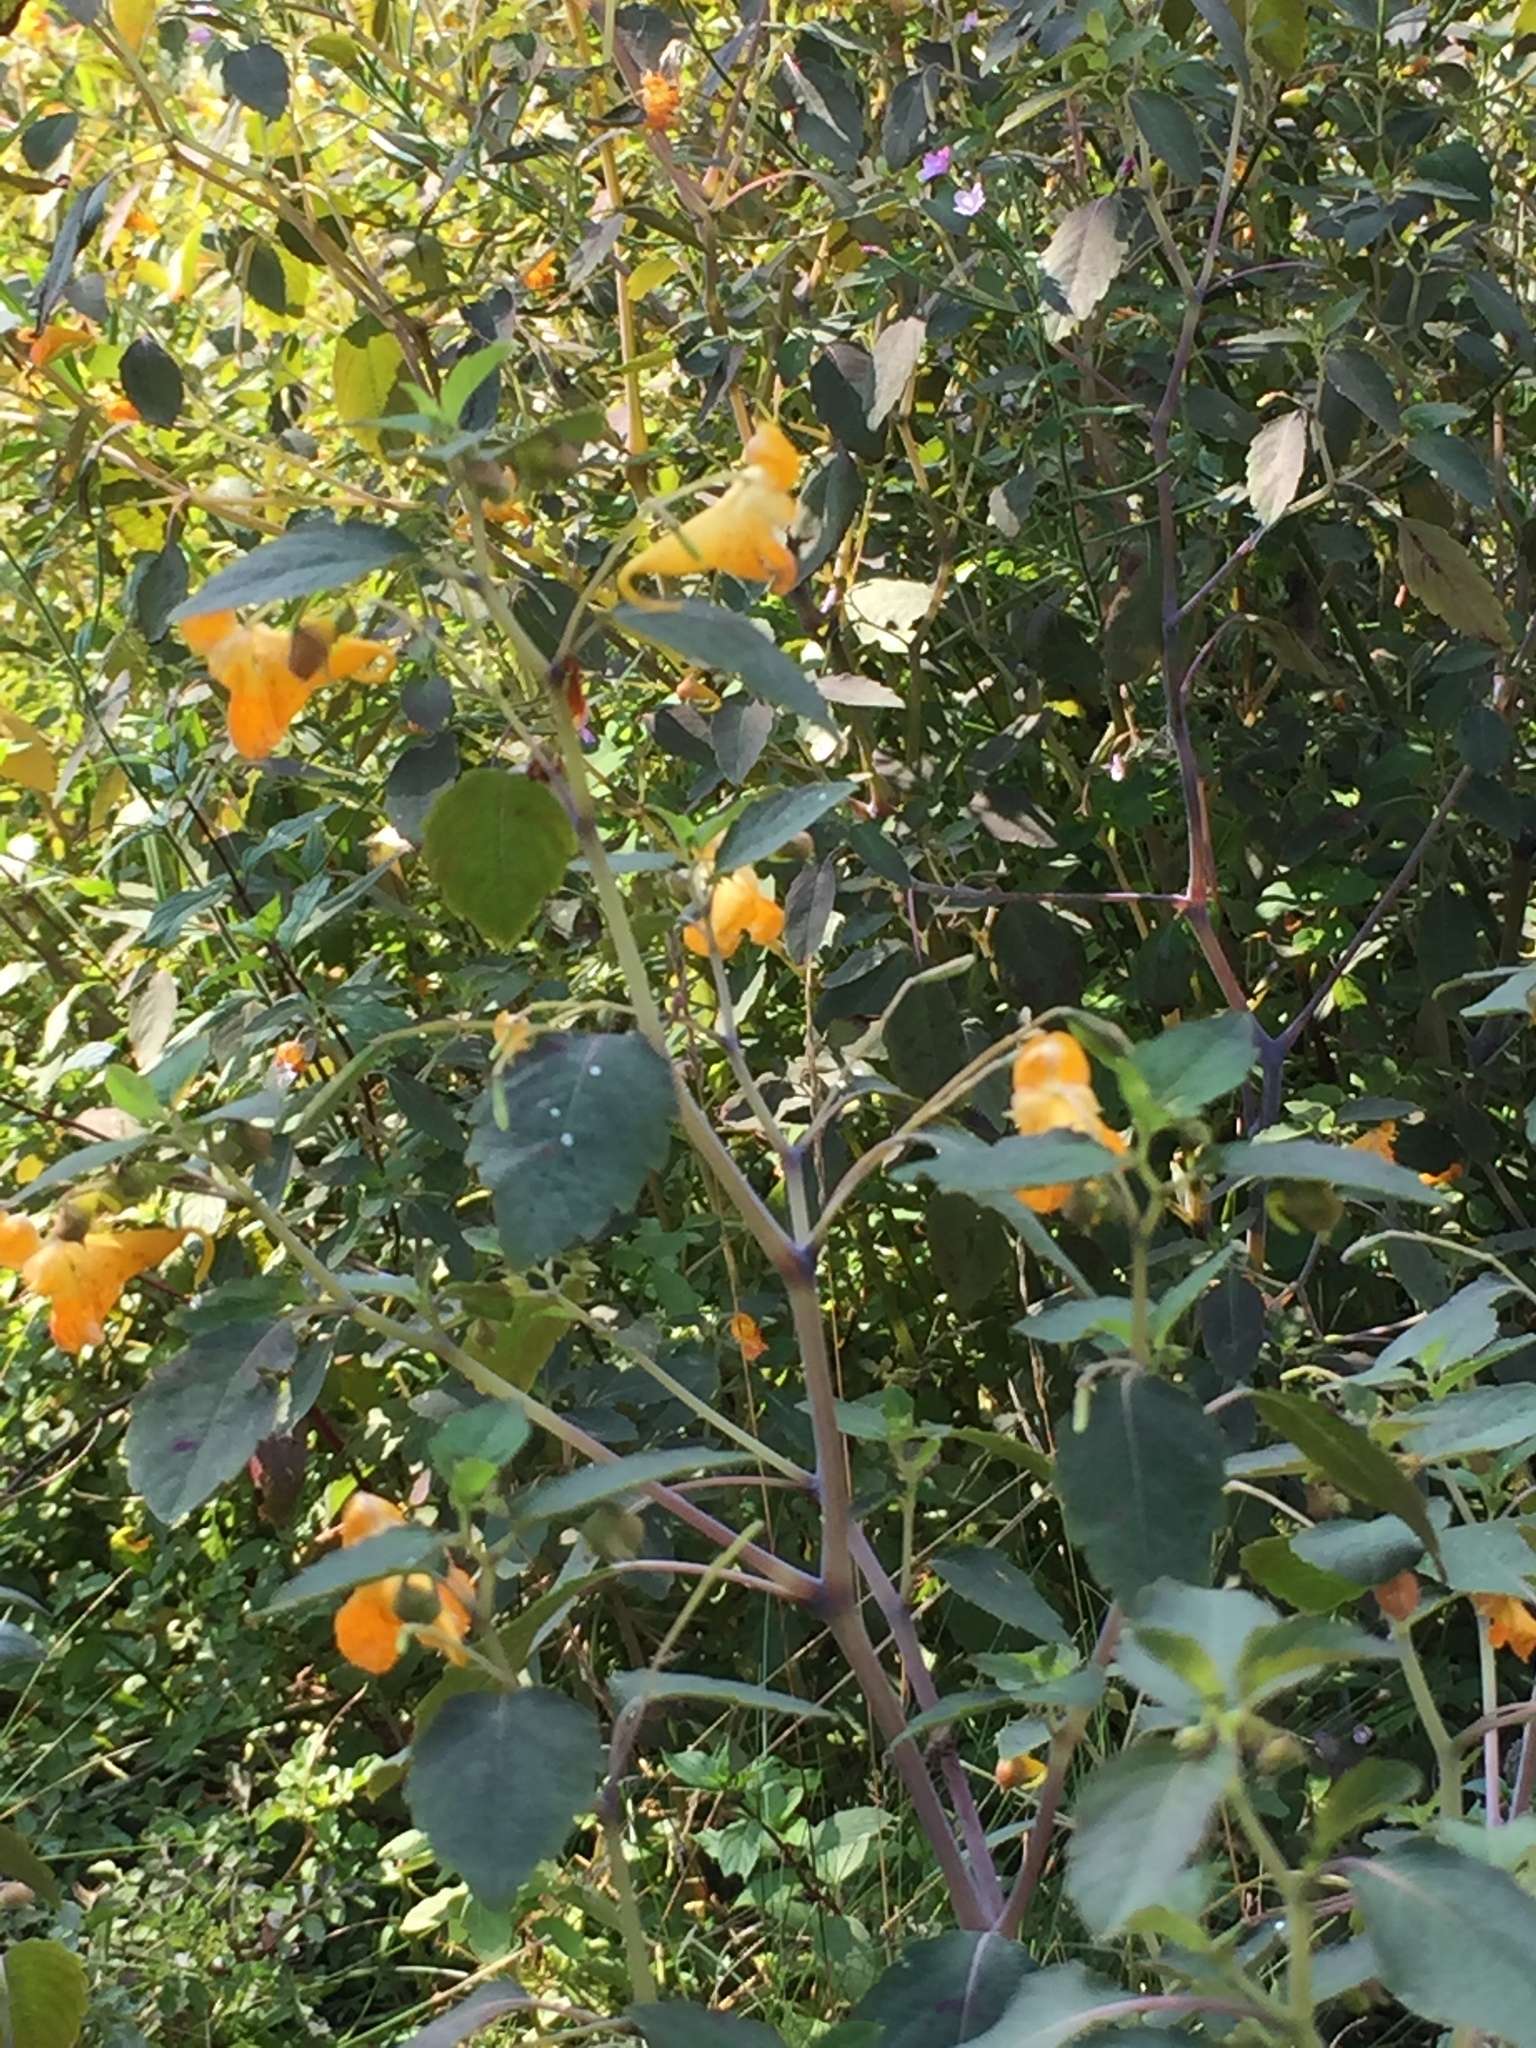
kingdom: Plantae
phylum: Tracheophyta
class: Magnoliopsida
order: Ericales
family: Balsaminaceae
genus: Impatiens
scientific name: Impatiens capensis
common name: Orange balsam
